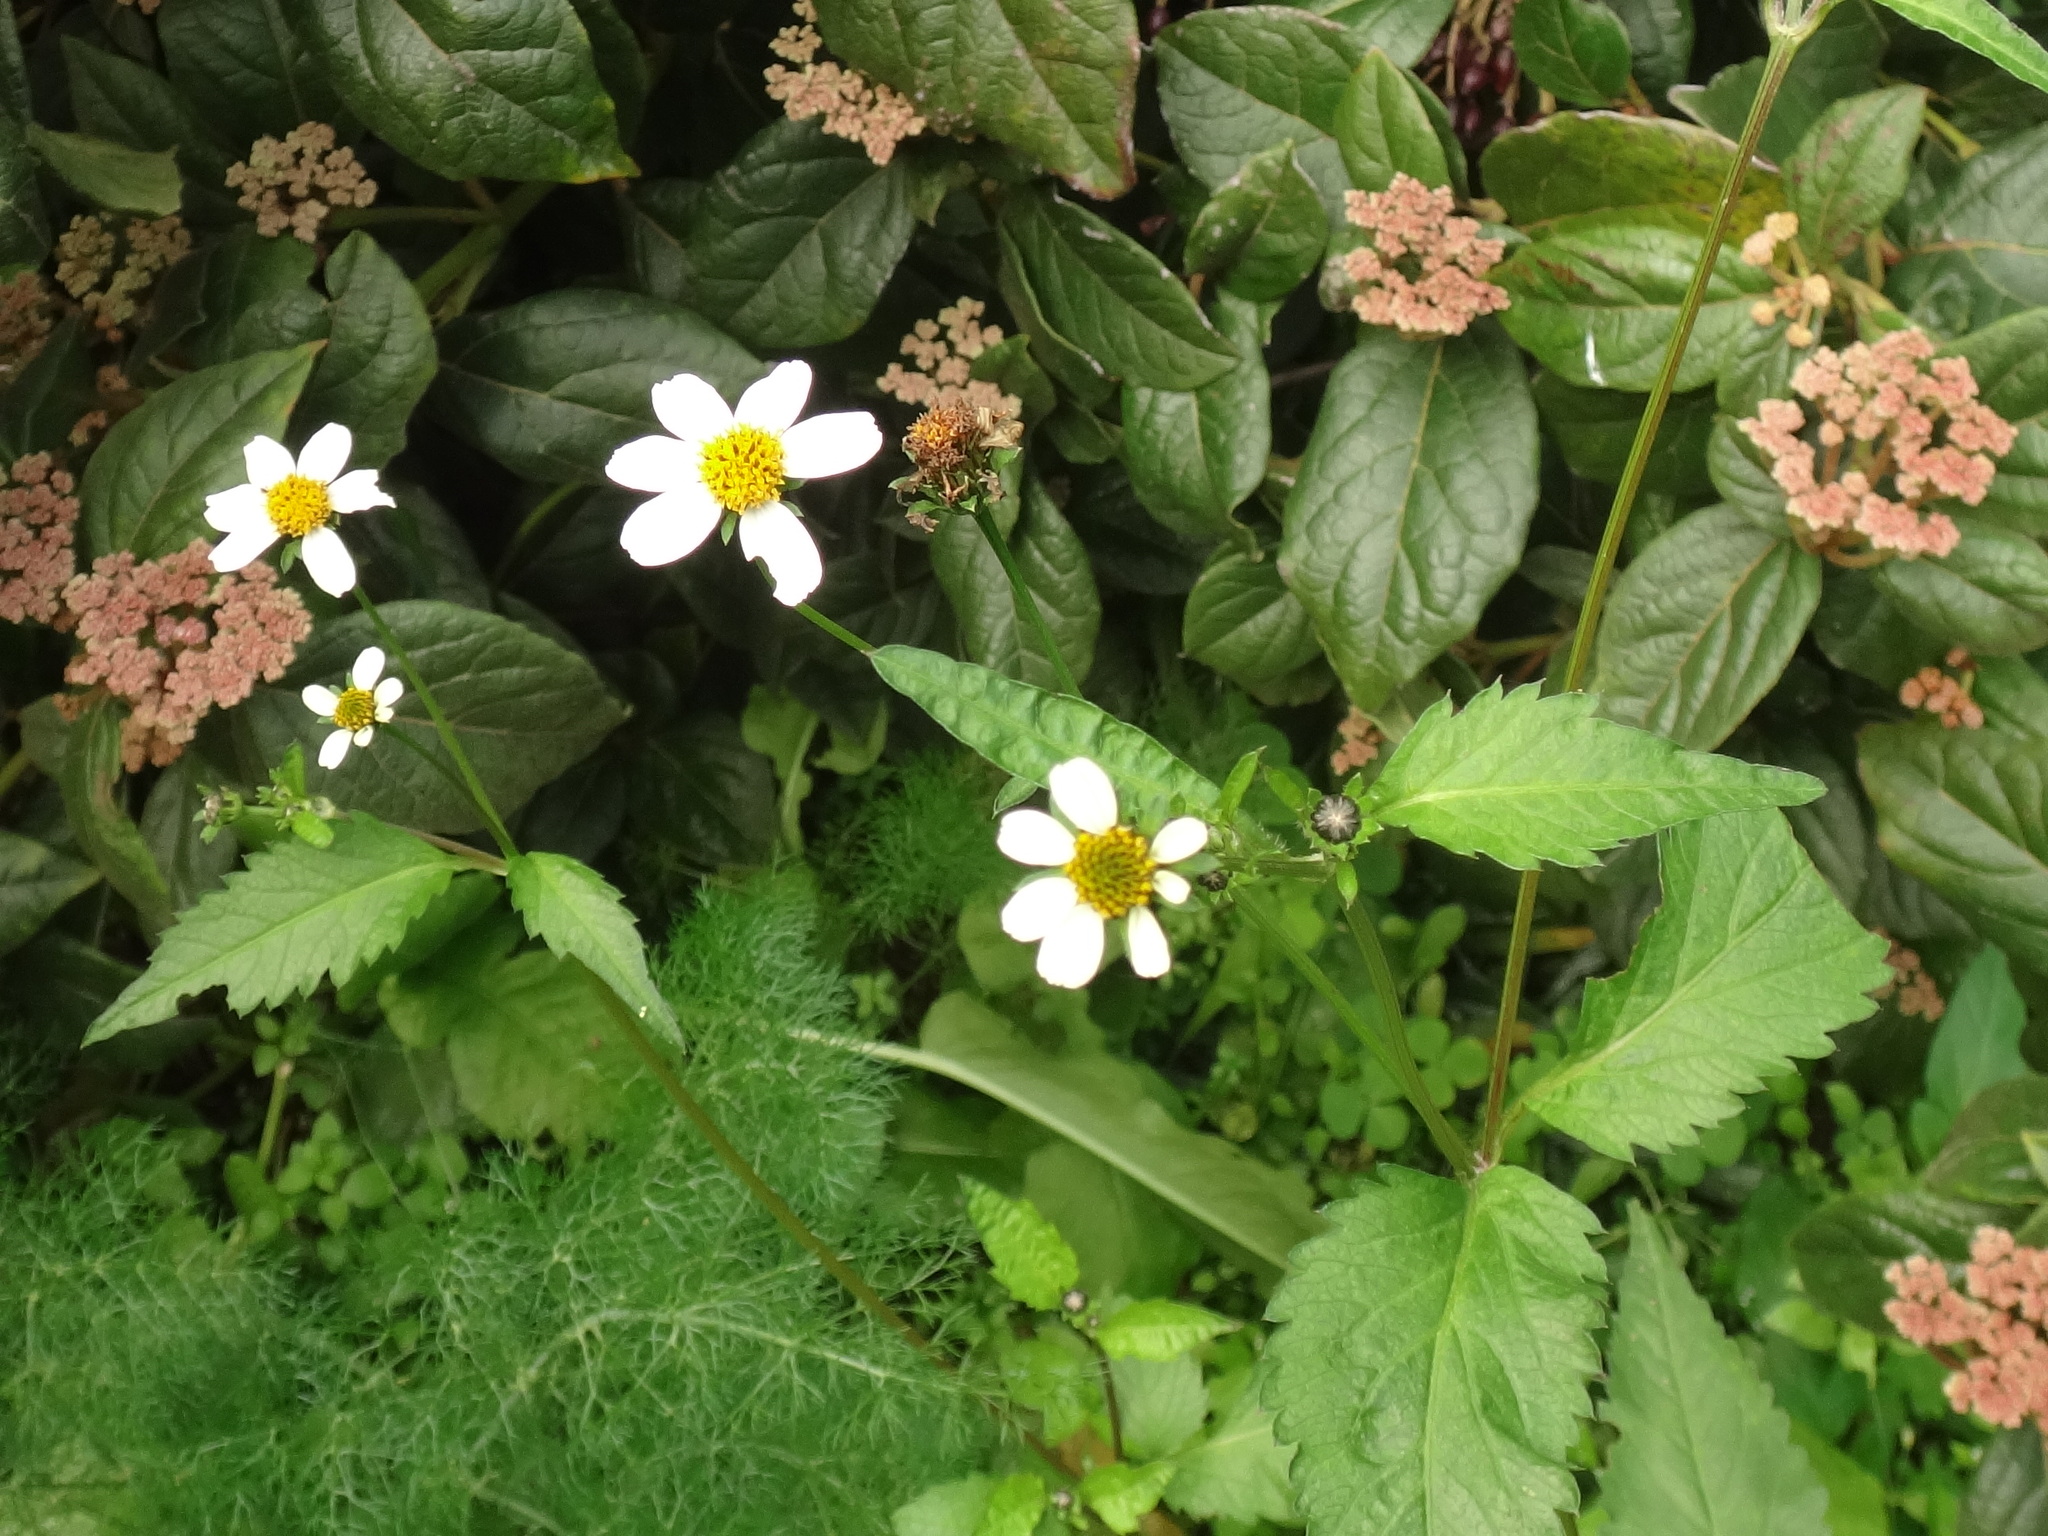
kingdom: Plantae
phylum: Tracheophyta
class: Magnoliopsida
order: Asterales
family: Asteraceae
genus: Bidens
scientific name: Bidens pilosa
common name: Black-jack
